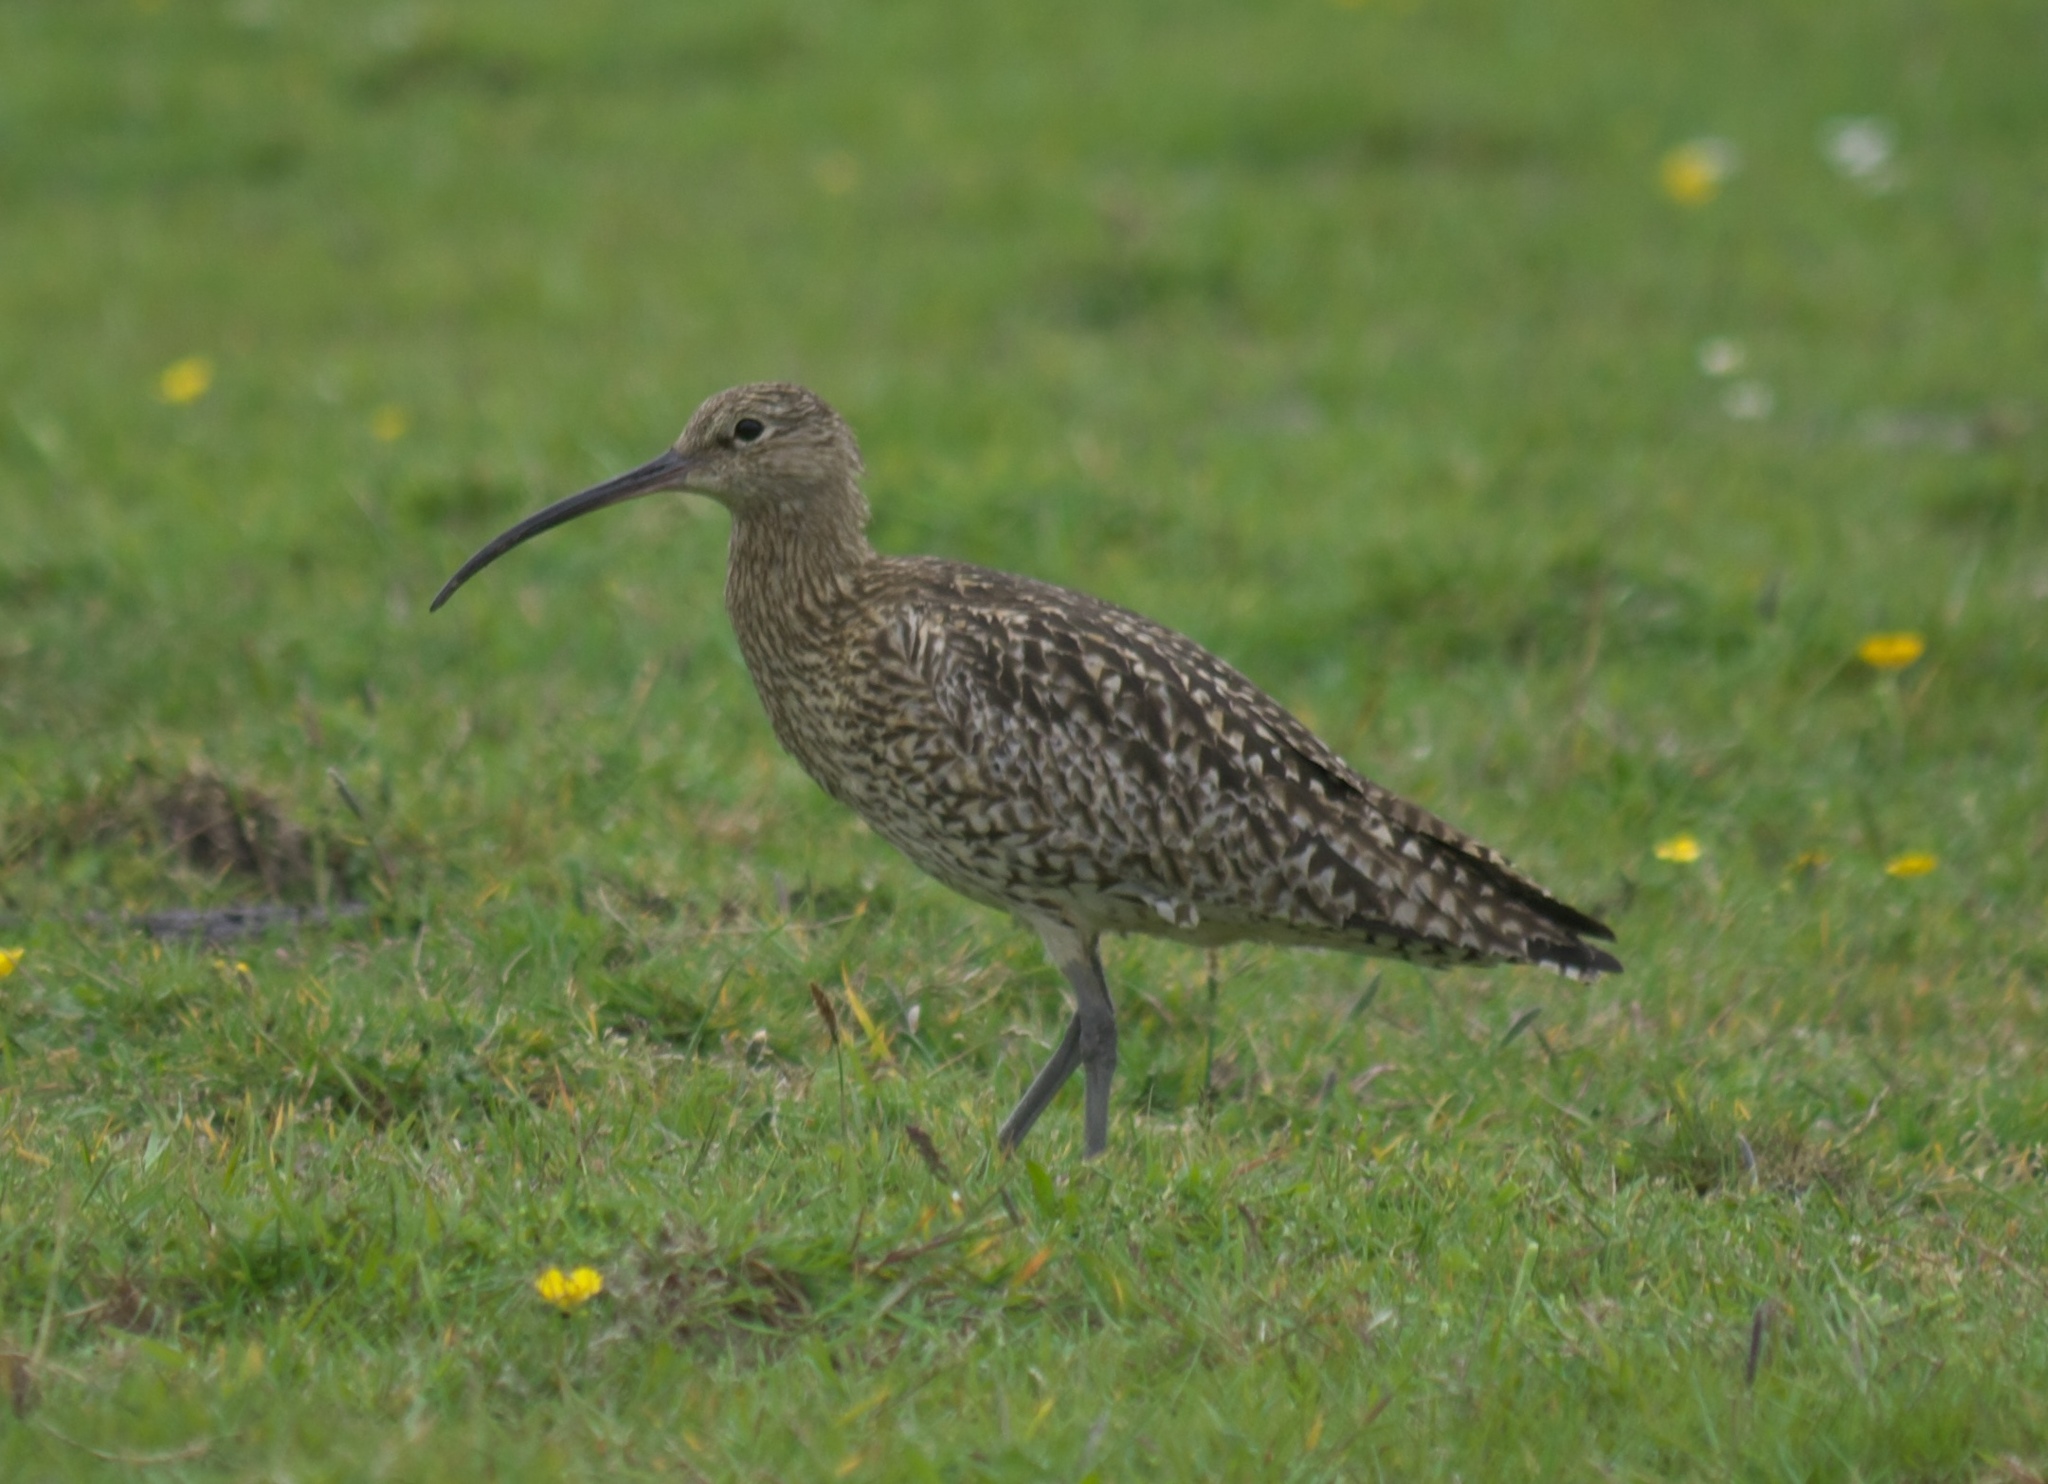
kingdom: Animalia
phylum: Chordata
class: Aves
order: Charadriiformes
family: Scolopacidae
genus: Numenius
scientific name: Numenius arquata
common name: Eurasian curlew
